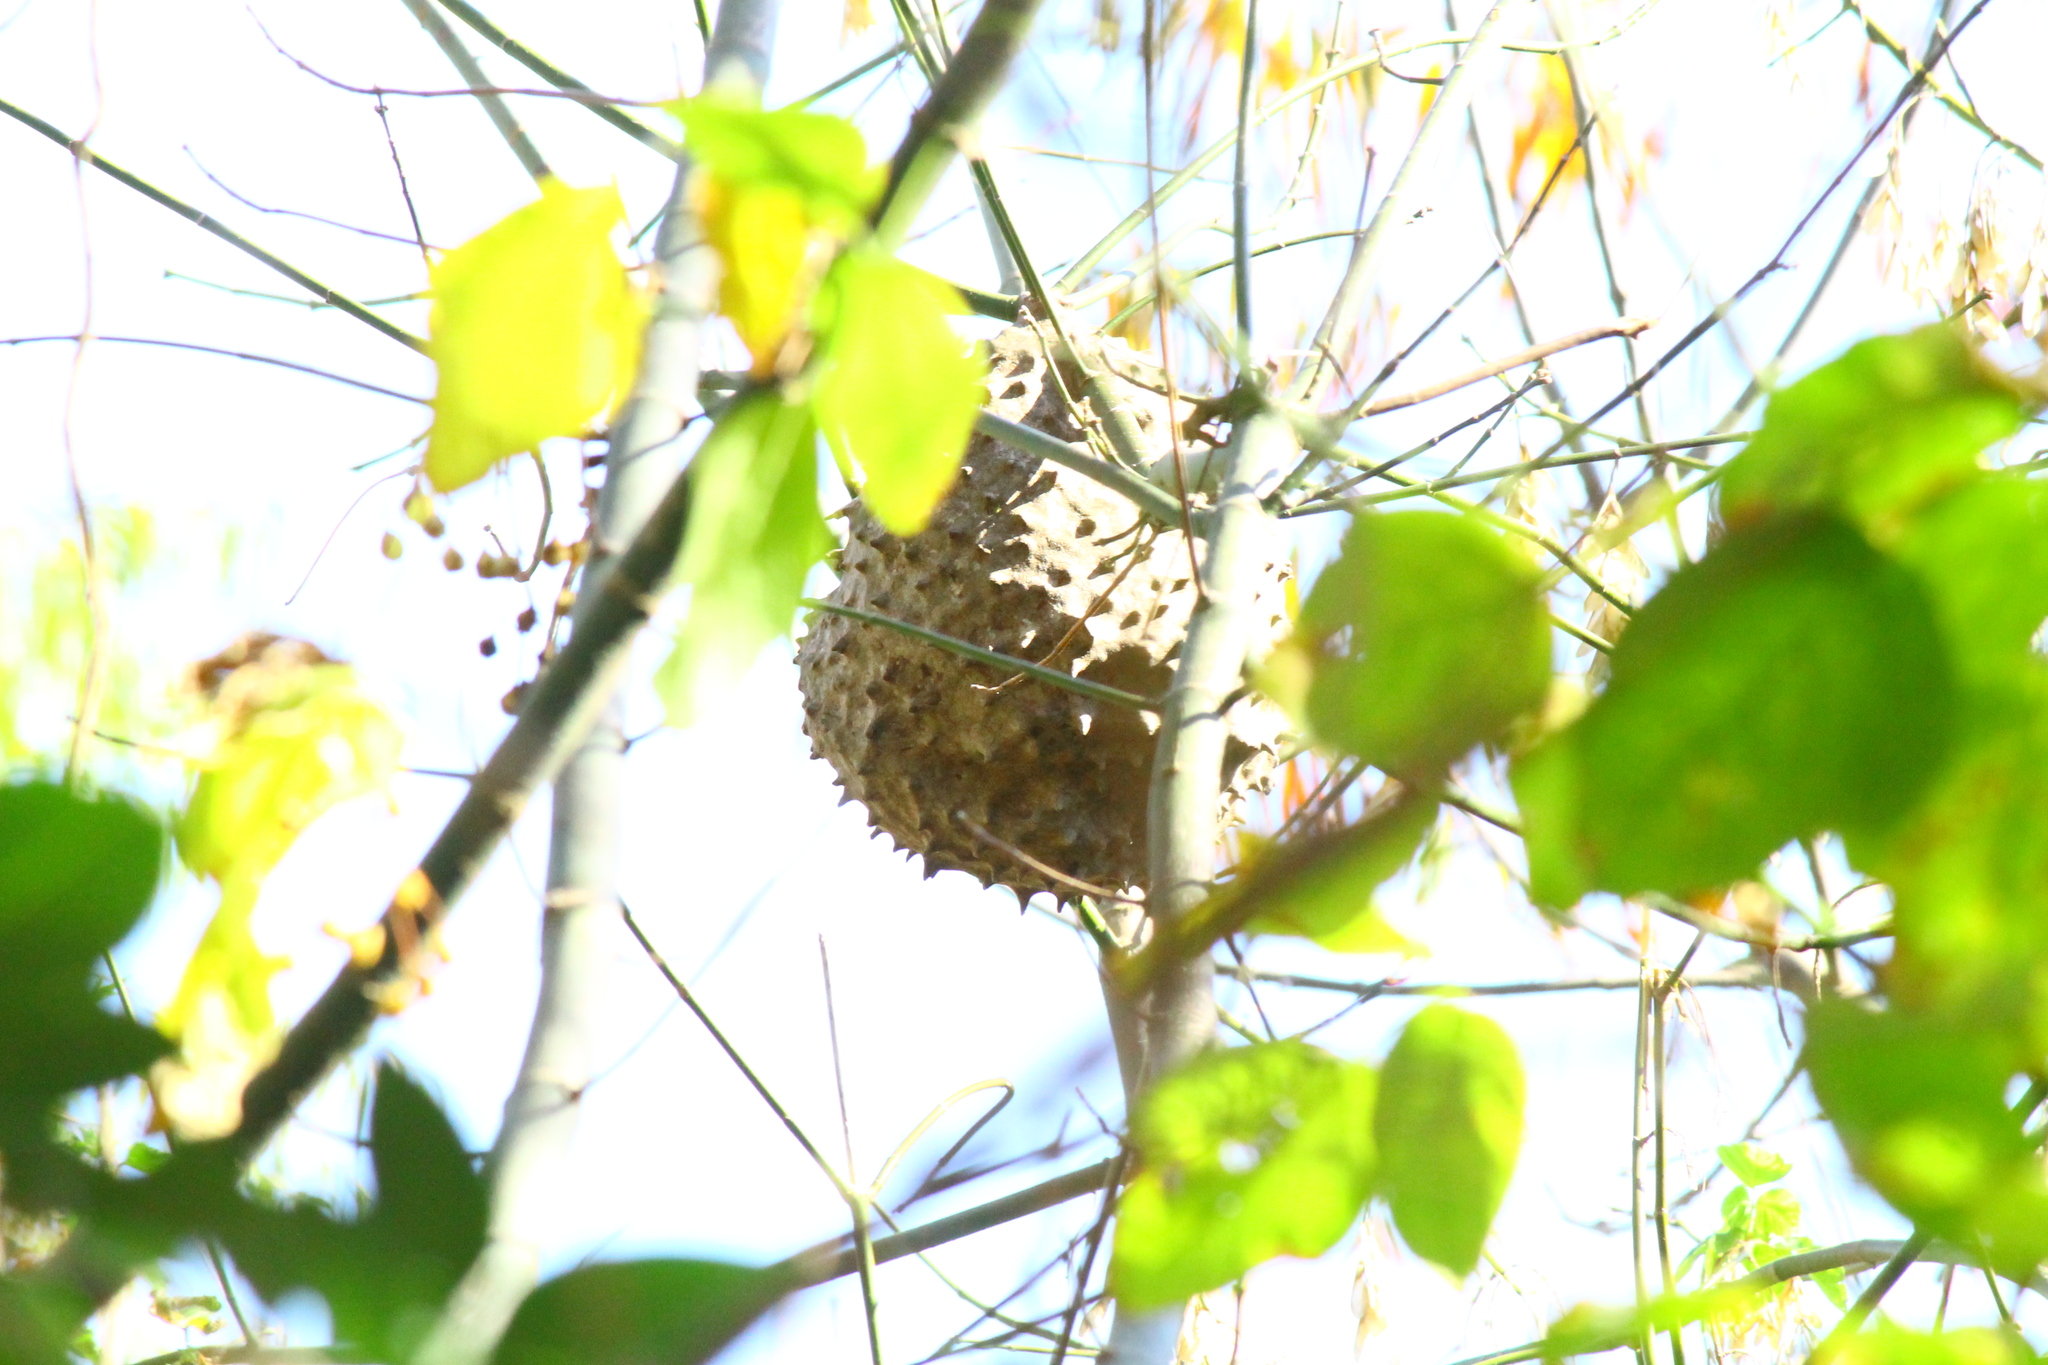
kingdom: Animalia
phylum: Arthropoda
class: Insecta
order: Hymenoptera
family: Eumenidae
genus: Polybia
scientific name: Polybia scutellaris
